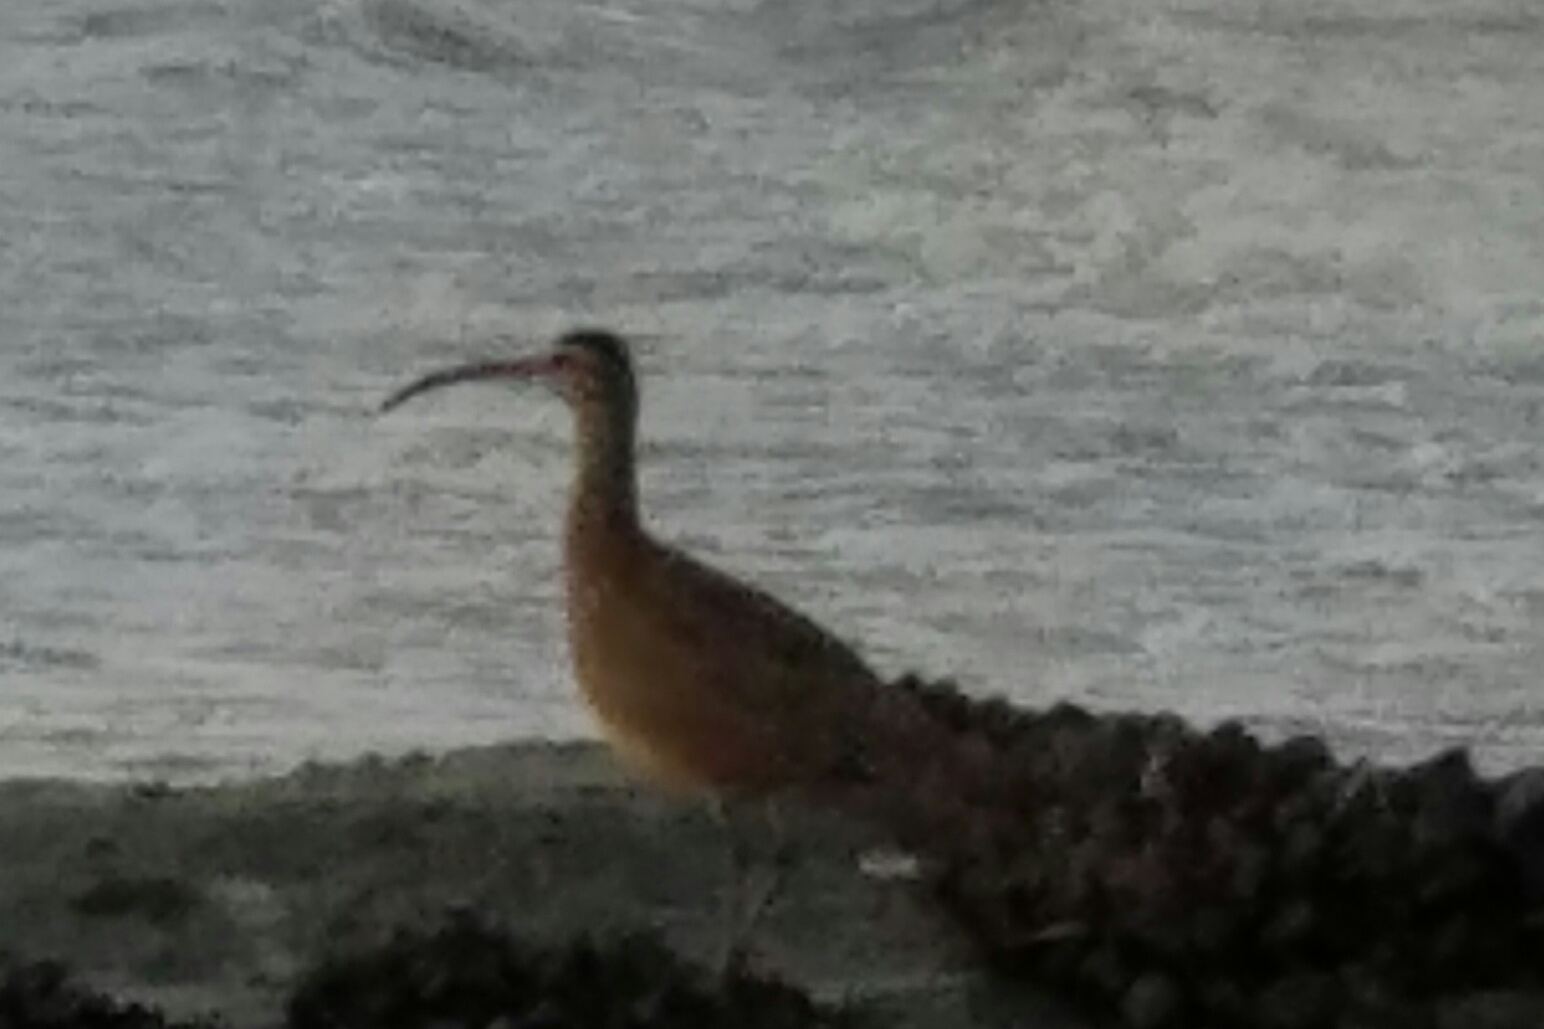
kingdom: Animalia
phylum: Chordata
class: Aves
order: Charadriiformes
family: Scolopacidae
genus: Numenius
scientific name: Numenius phaeopus
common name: Whimbrel
